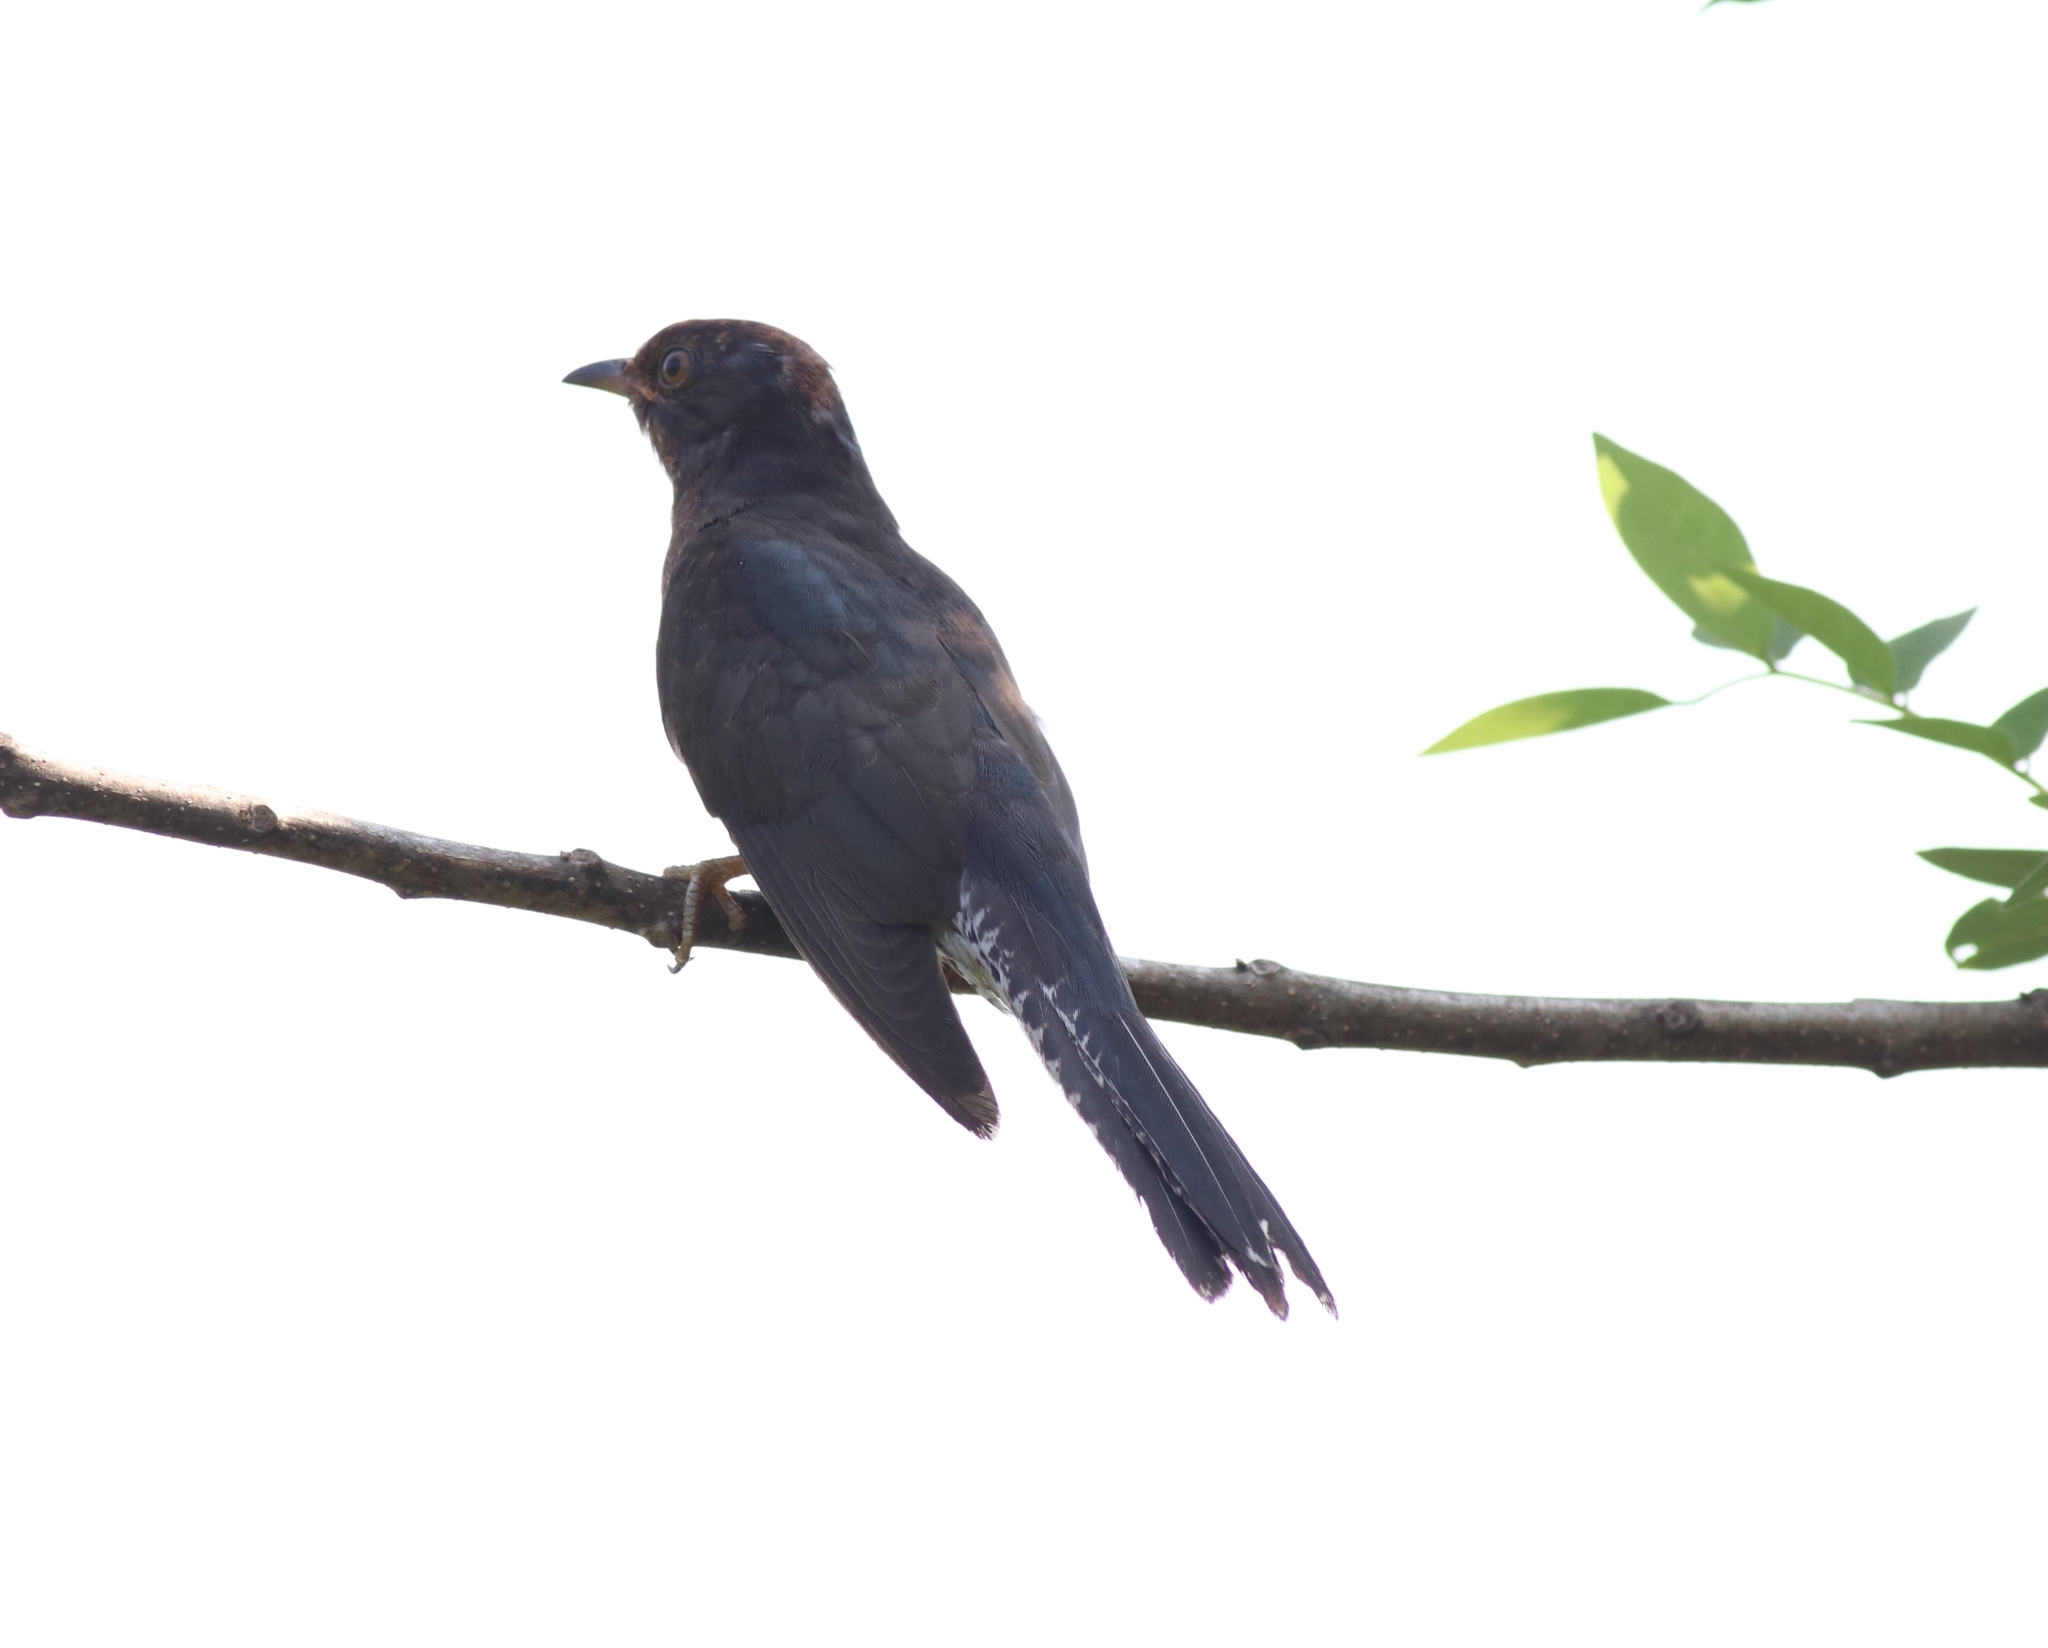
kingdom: Animalia
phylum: Chordata
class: Aves
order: Cuculiformes
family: Cuculidae
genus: Cacomantis
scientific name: Cacomantis passerinus
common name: Grey-bellied cuckoo
